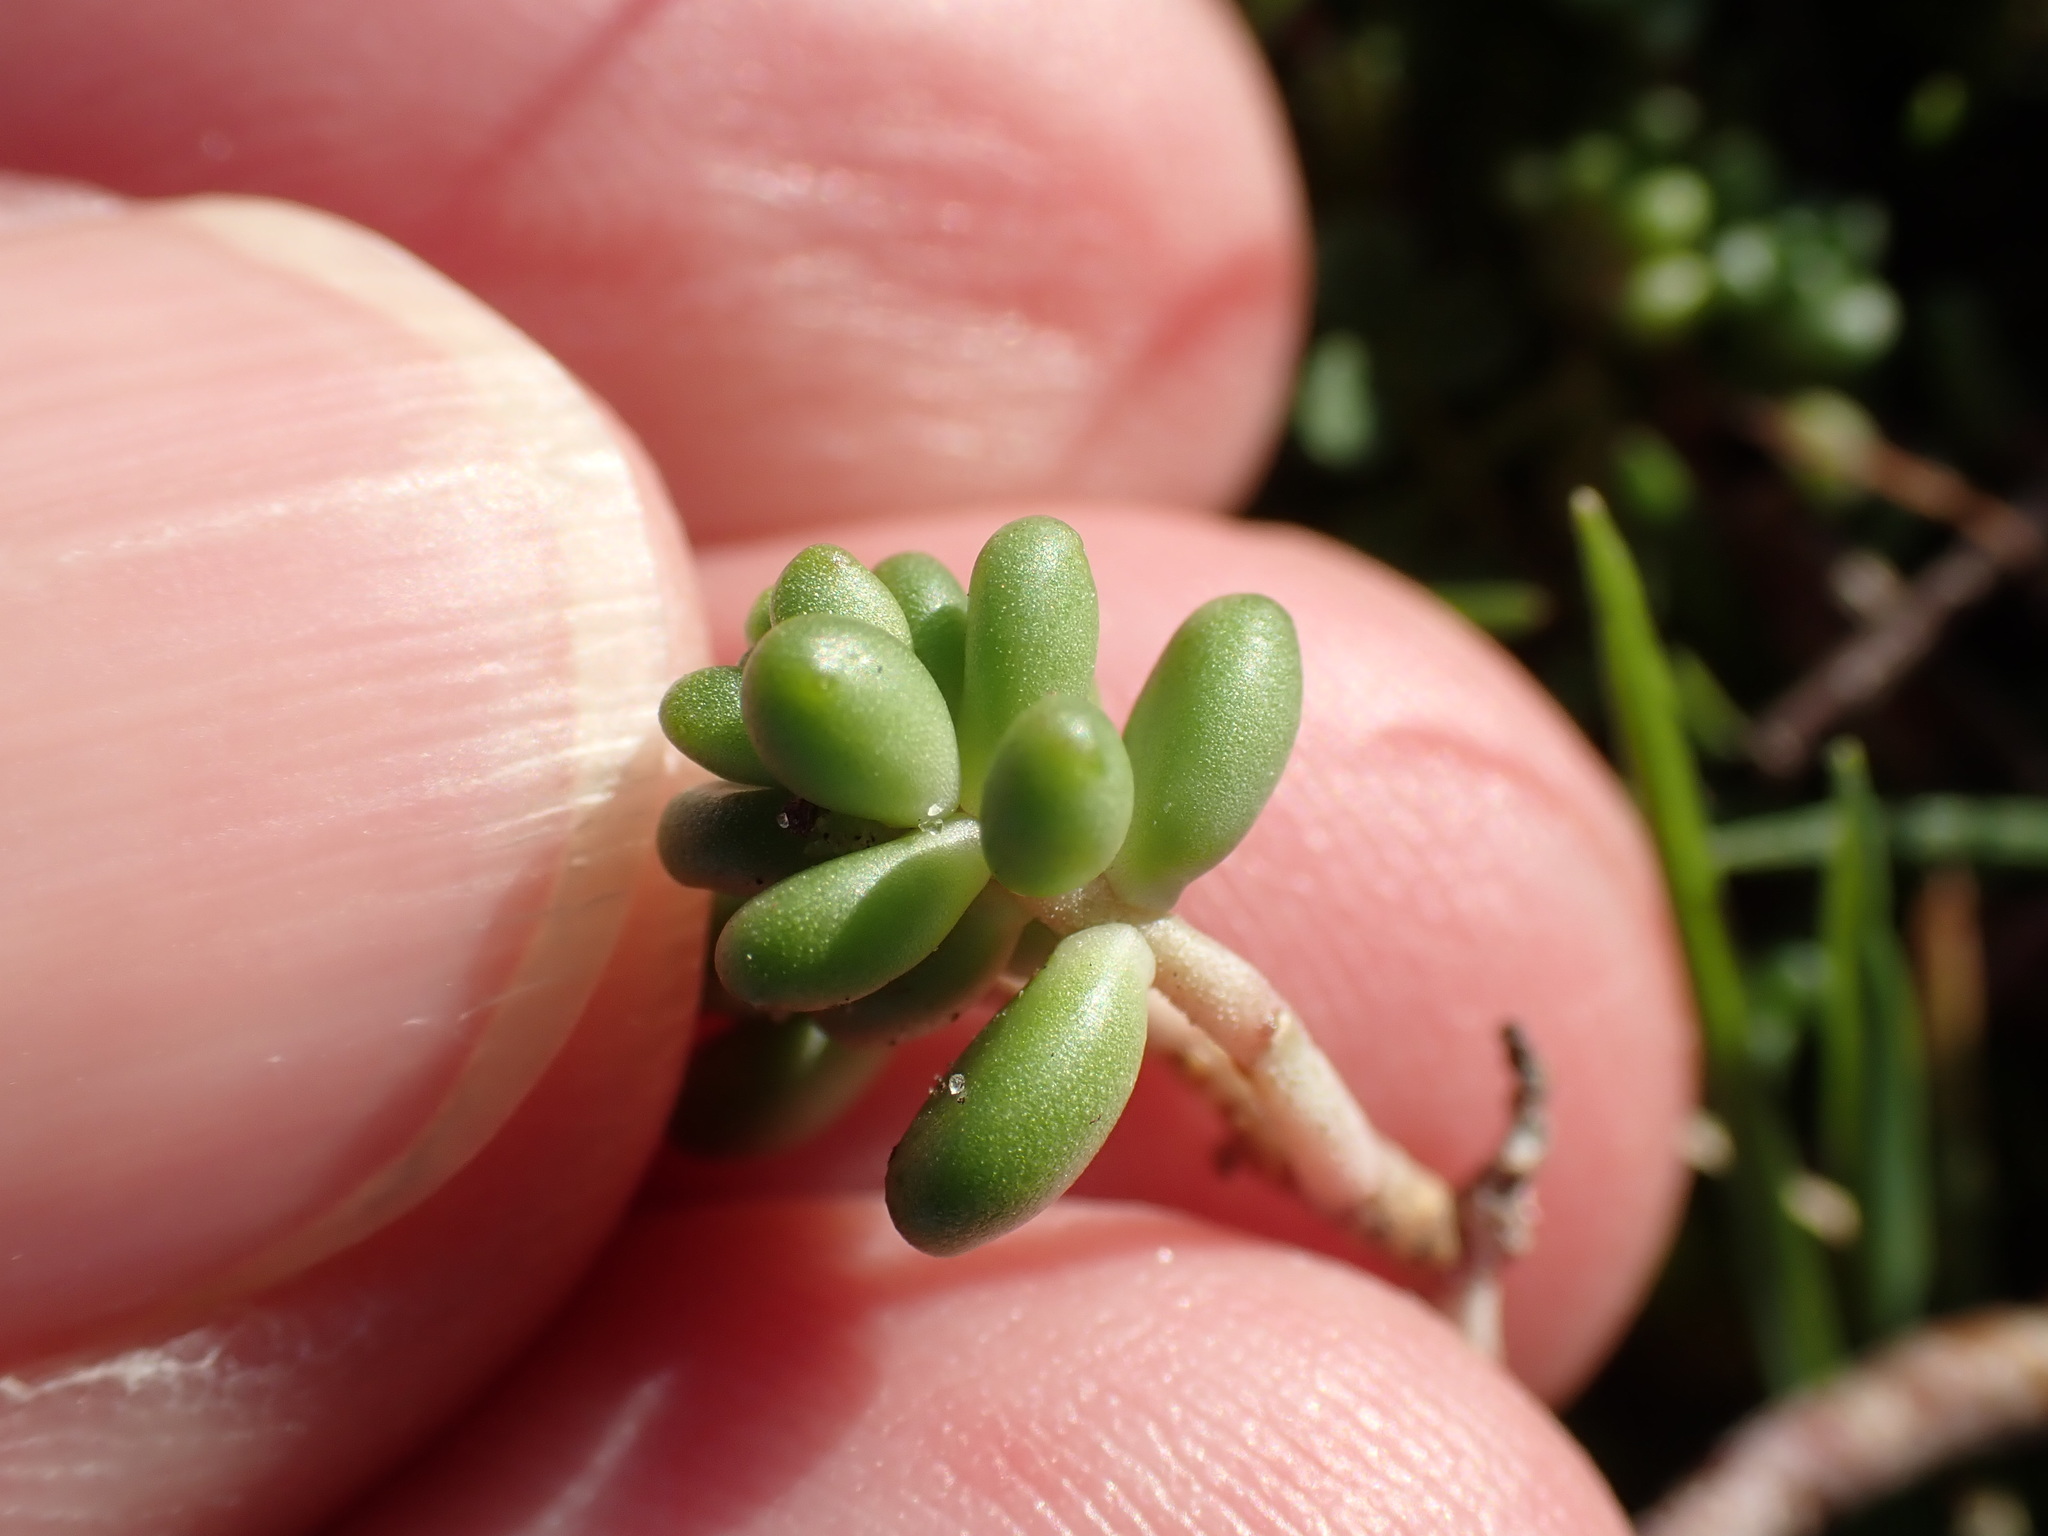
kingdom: Plantae
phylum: Tracheophyta
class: Magnoliopsida
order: Saxifragales
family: Crassulaceae
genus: Sedum
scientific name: Sedum album
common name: White stonecrop
